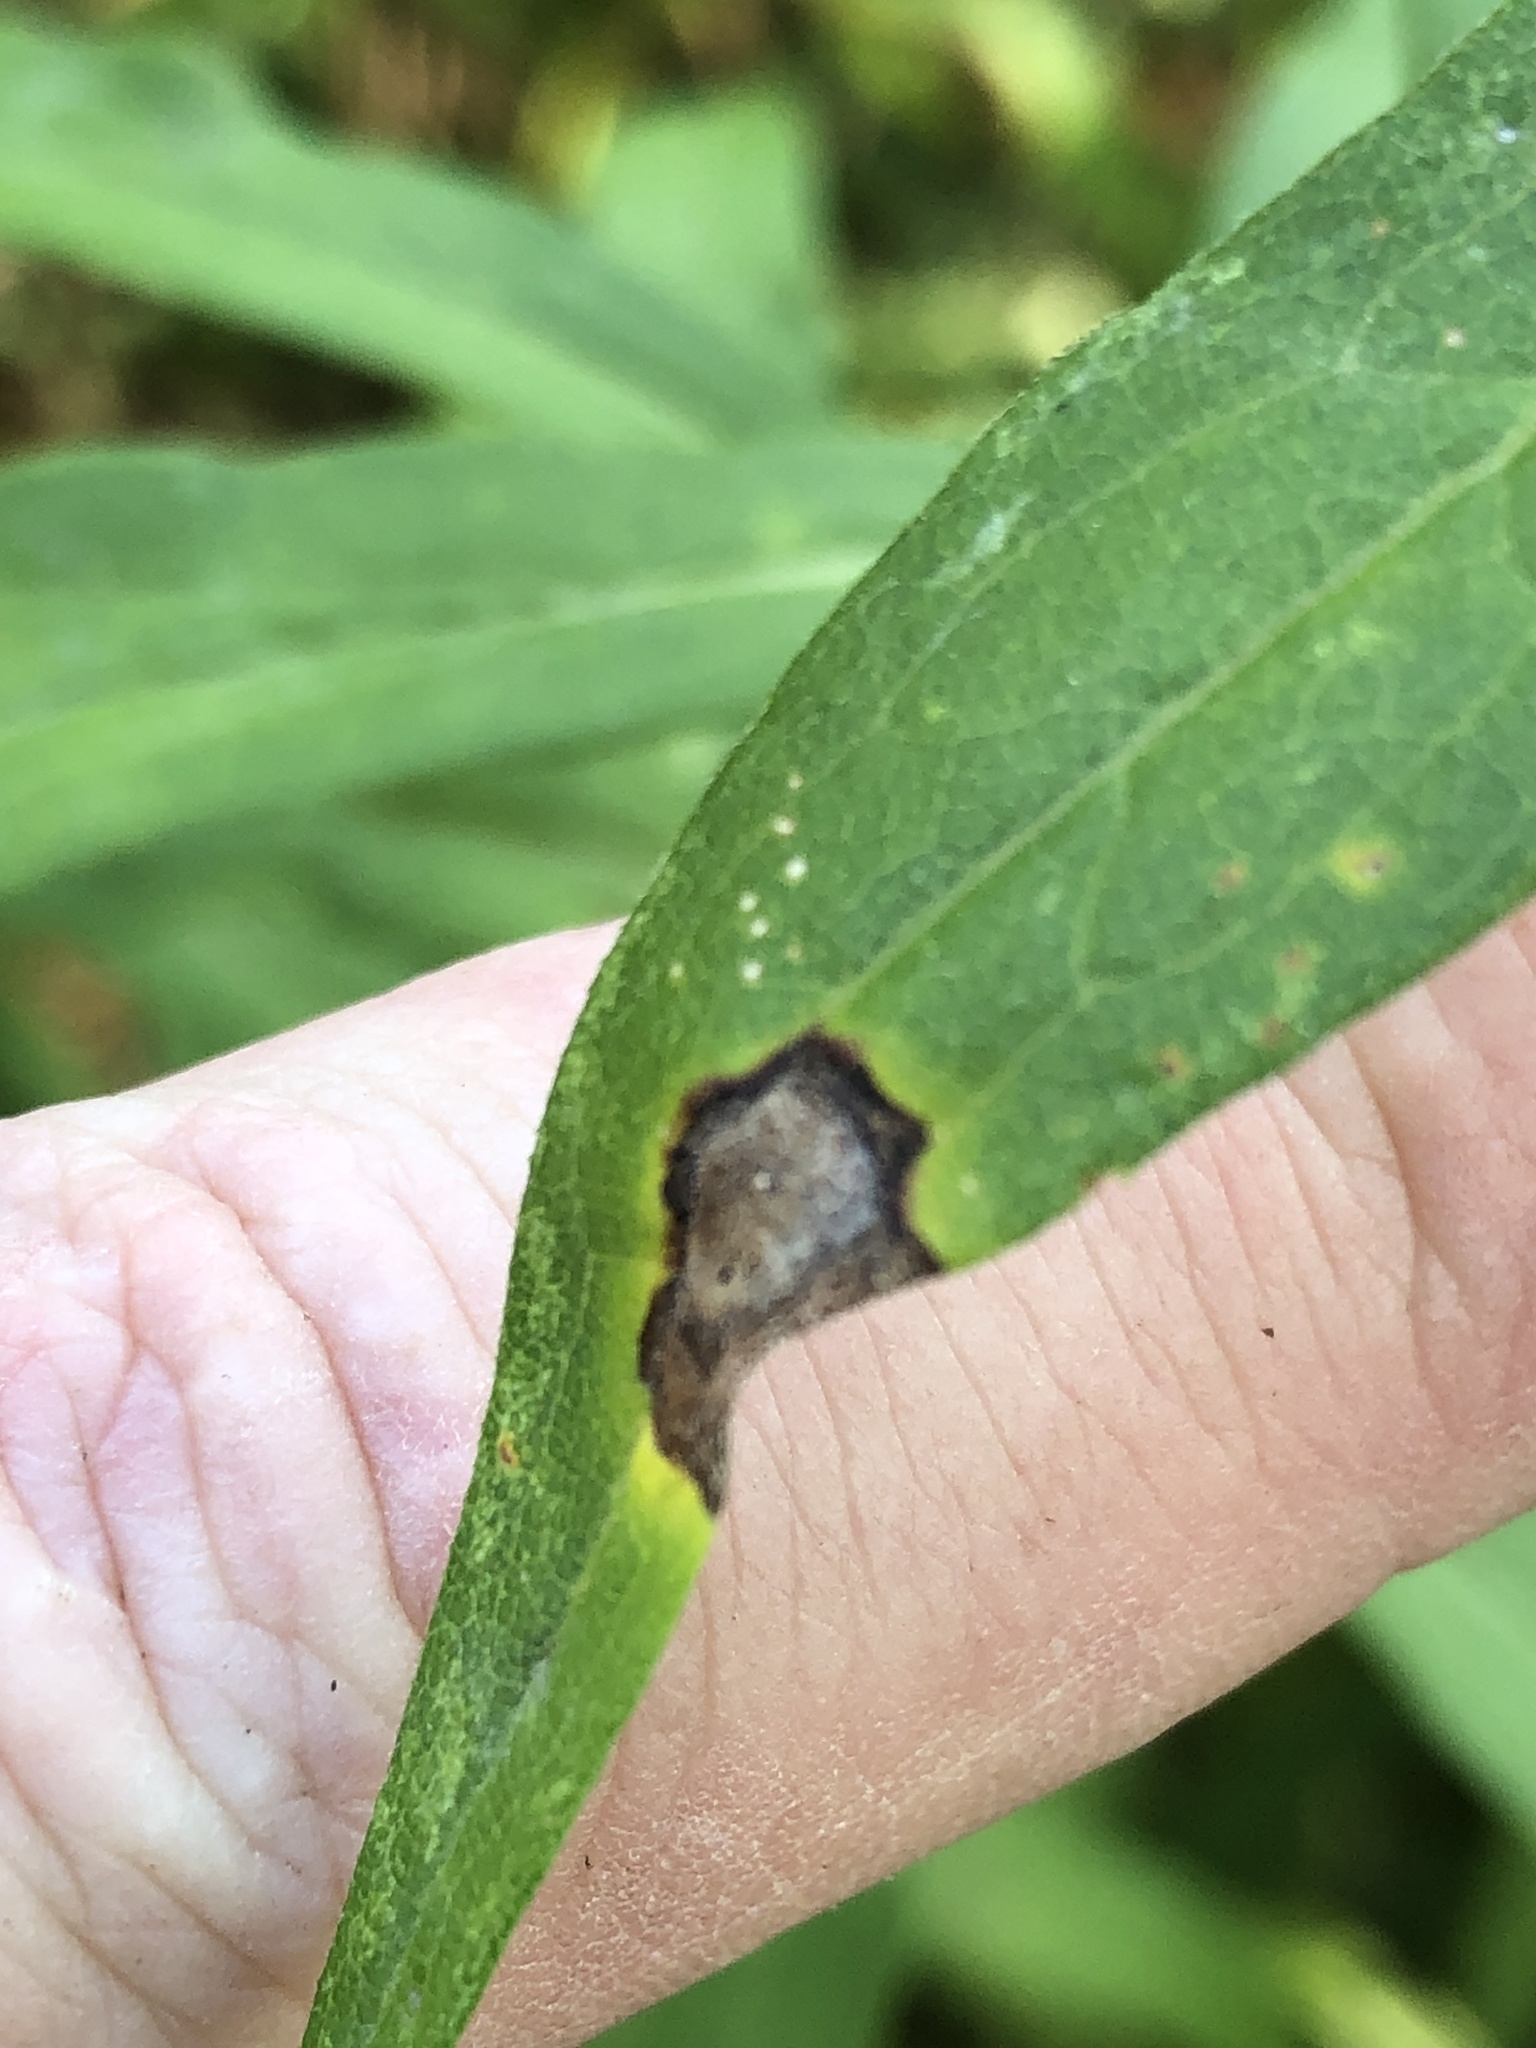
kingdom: Animalia
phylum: Arthropoda
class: Insecta
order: Diptera
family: Cecidomyiidae
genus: Asteromyia
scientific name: Asteromyia carbonifera
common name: Carbonifera goldenrod gall midge
